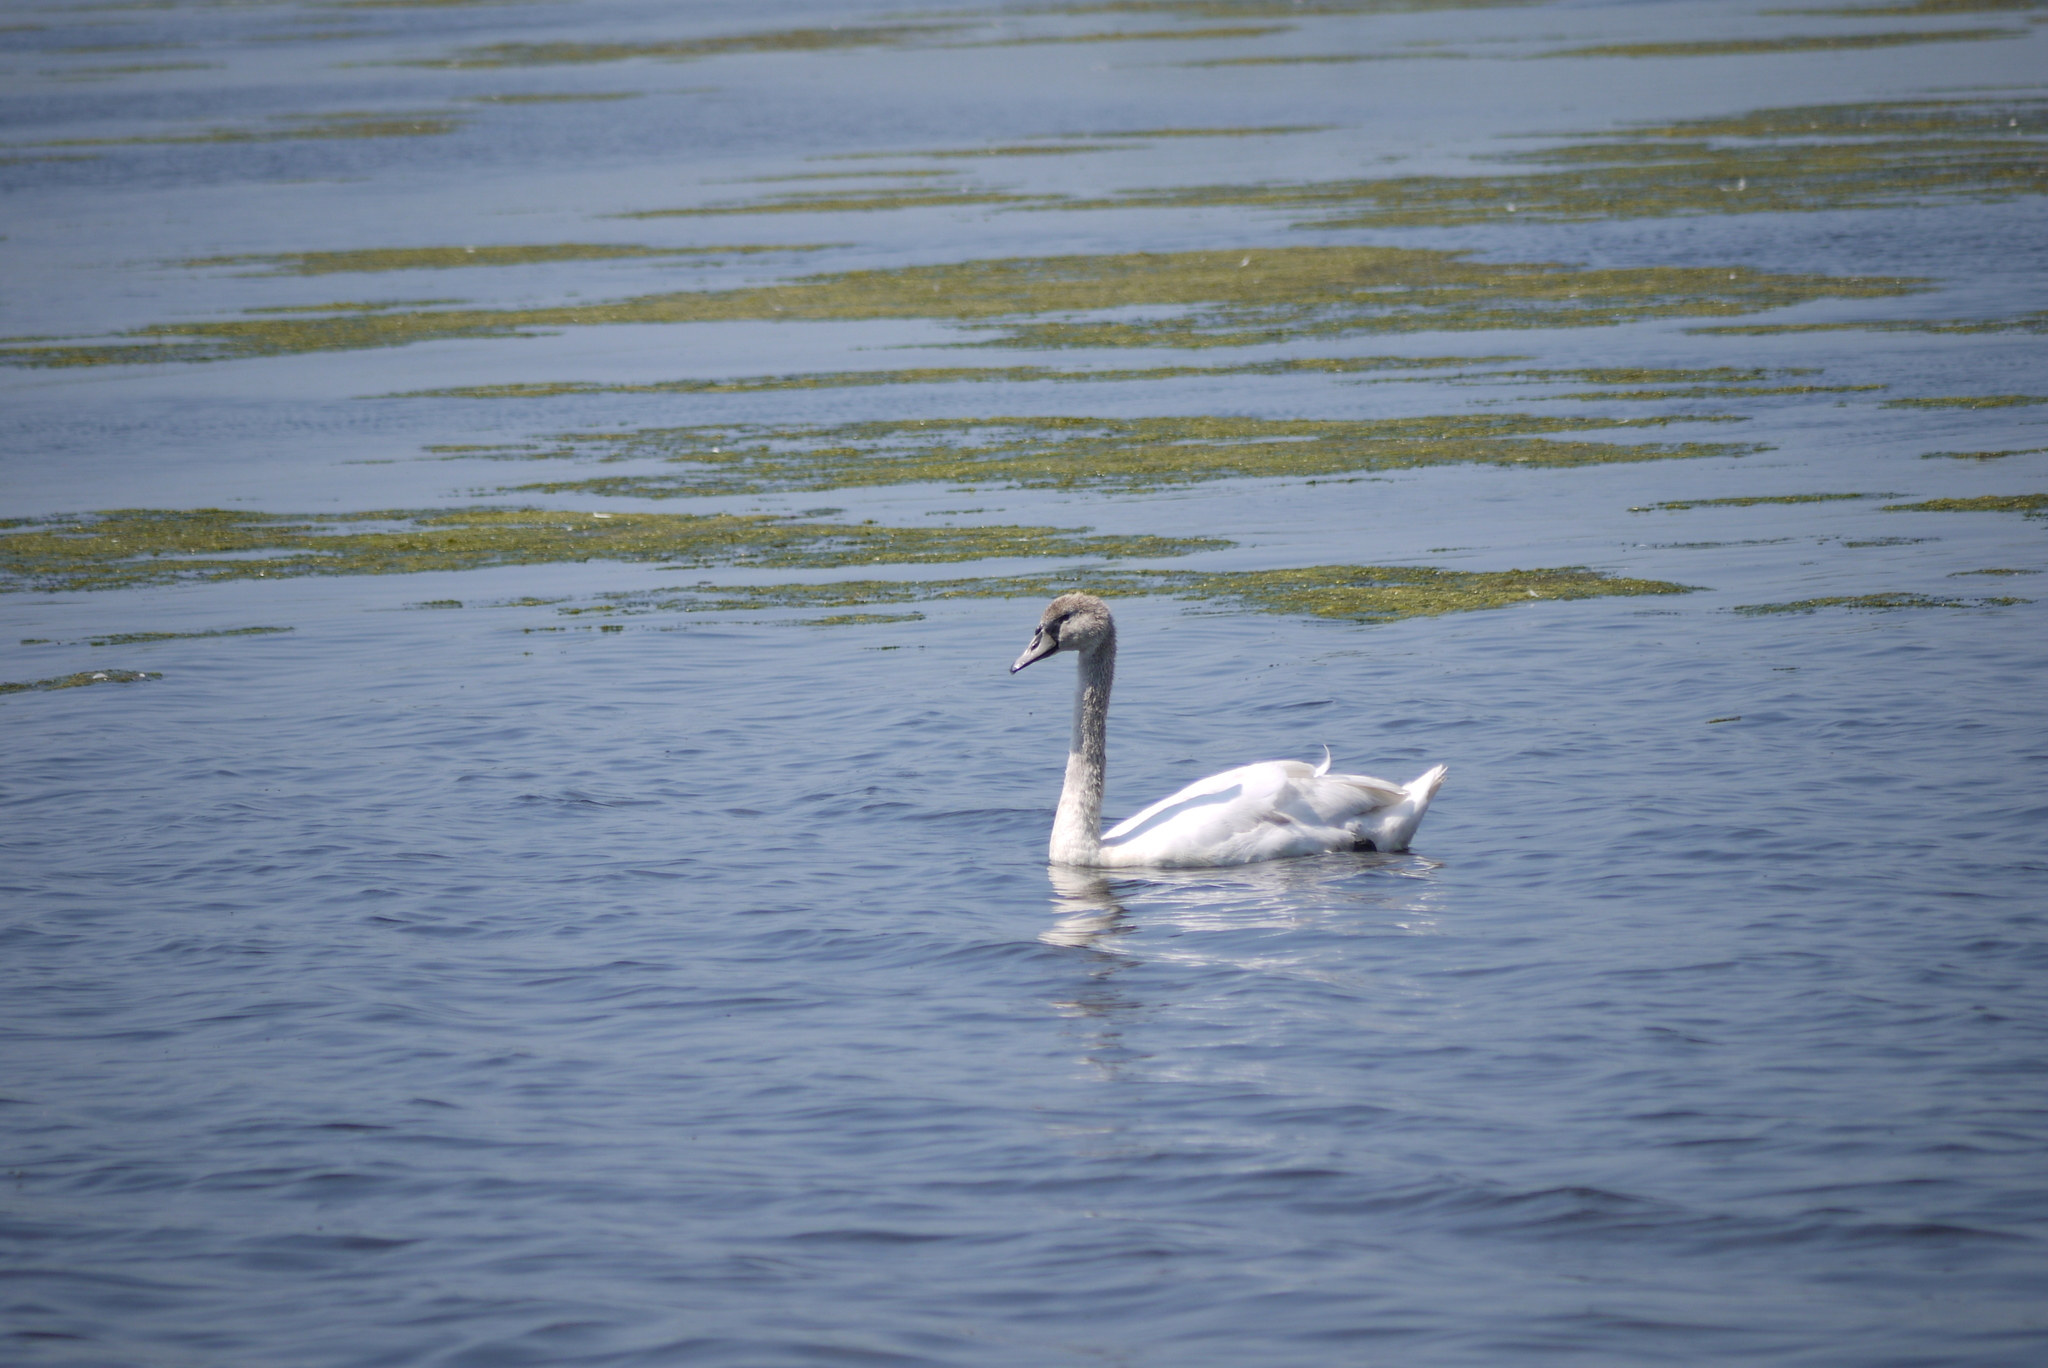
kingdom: Animalia
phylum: Chordata
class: Aves
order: Anseriformes
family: Anatidae
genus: Cygnus
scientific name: Cygnus olor
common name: Mute swan
